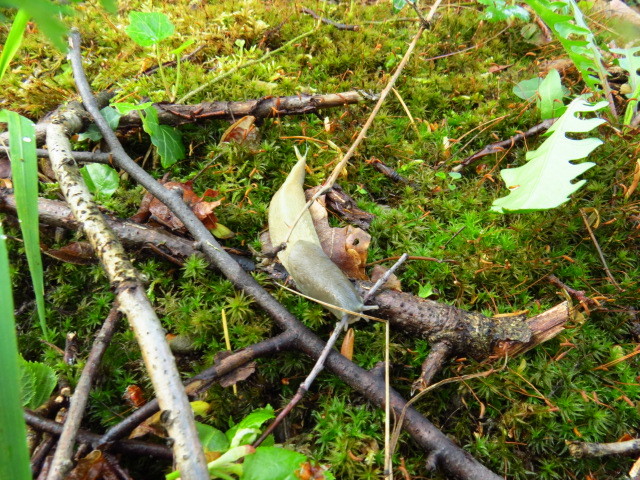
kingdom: Animalia
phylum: Mollusca
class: Gastropoda
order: Stylommatophora
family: Limacidae
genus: Limax
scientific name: Limax cinereoniger
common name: Ash-black slug
